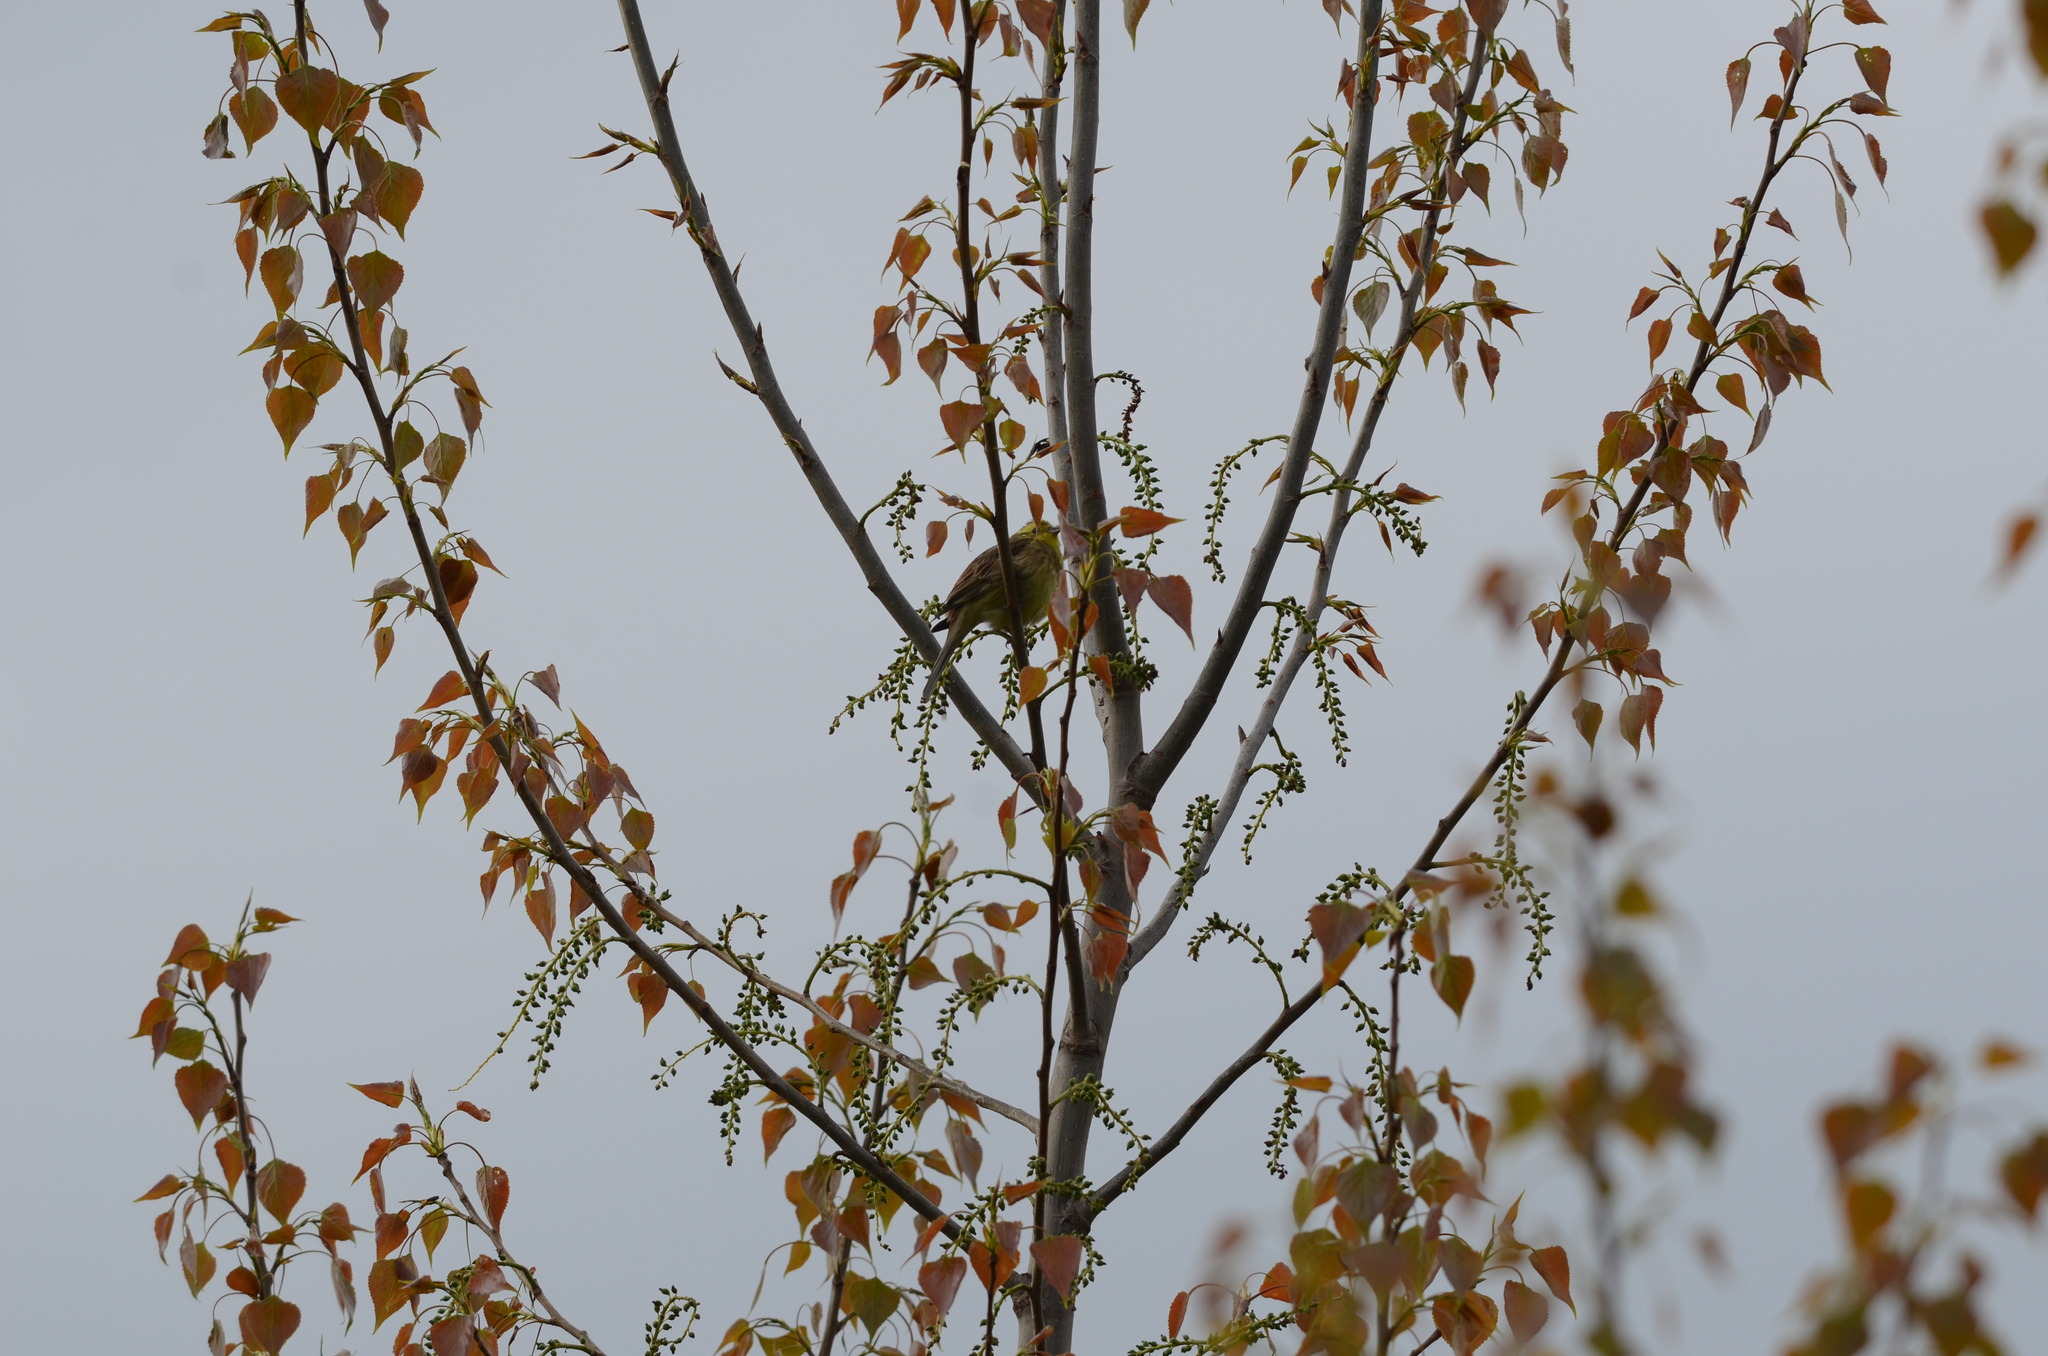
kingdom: Animalia
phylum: Chordata
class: Aves
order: Passeriformes
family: Emberizidae
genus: Emberiza
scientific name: Emberiza citrinella
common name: Yellowhammer
